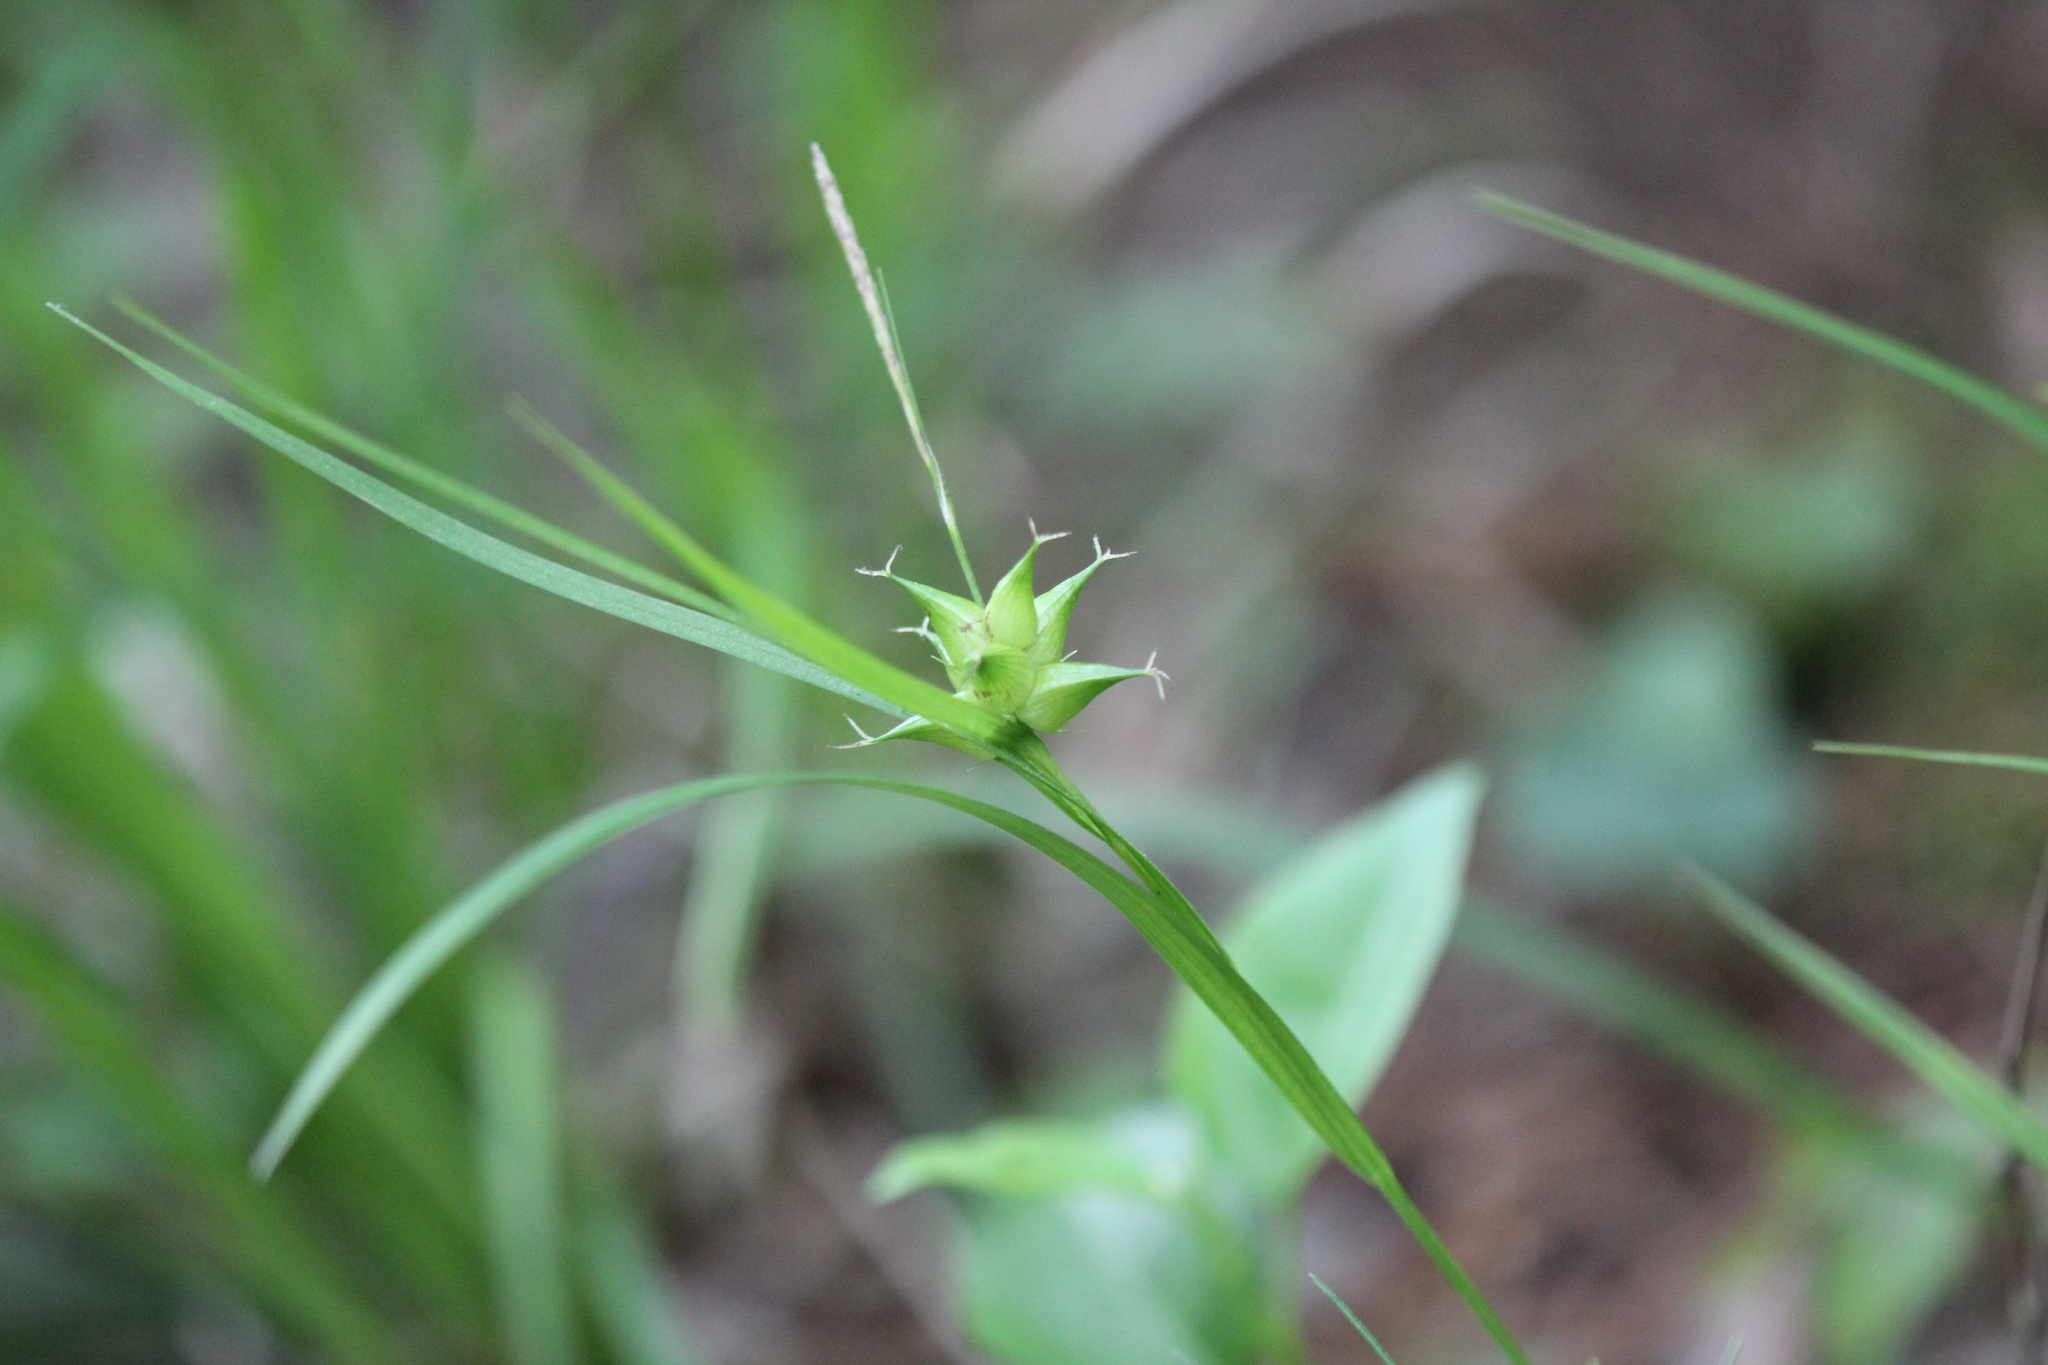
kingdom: Plantae
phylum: Tracheophyta
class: Liliopsida
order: Poales
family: Cyperaceae
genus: Carex
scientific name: Carex intumescens
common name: Greater bladder sedge
